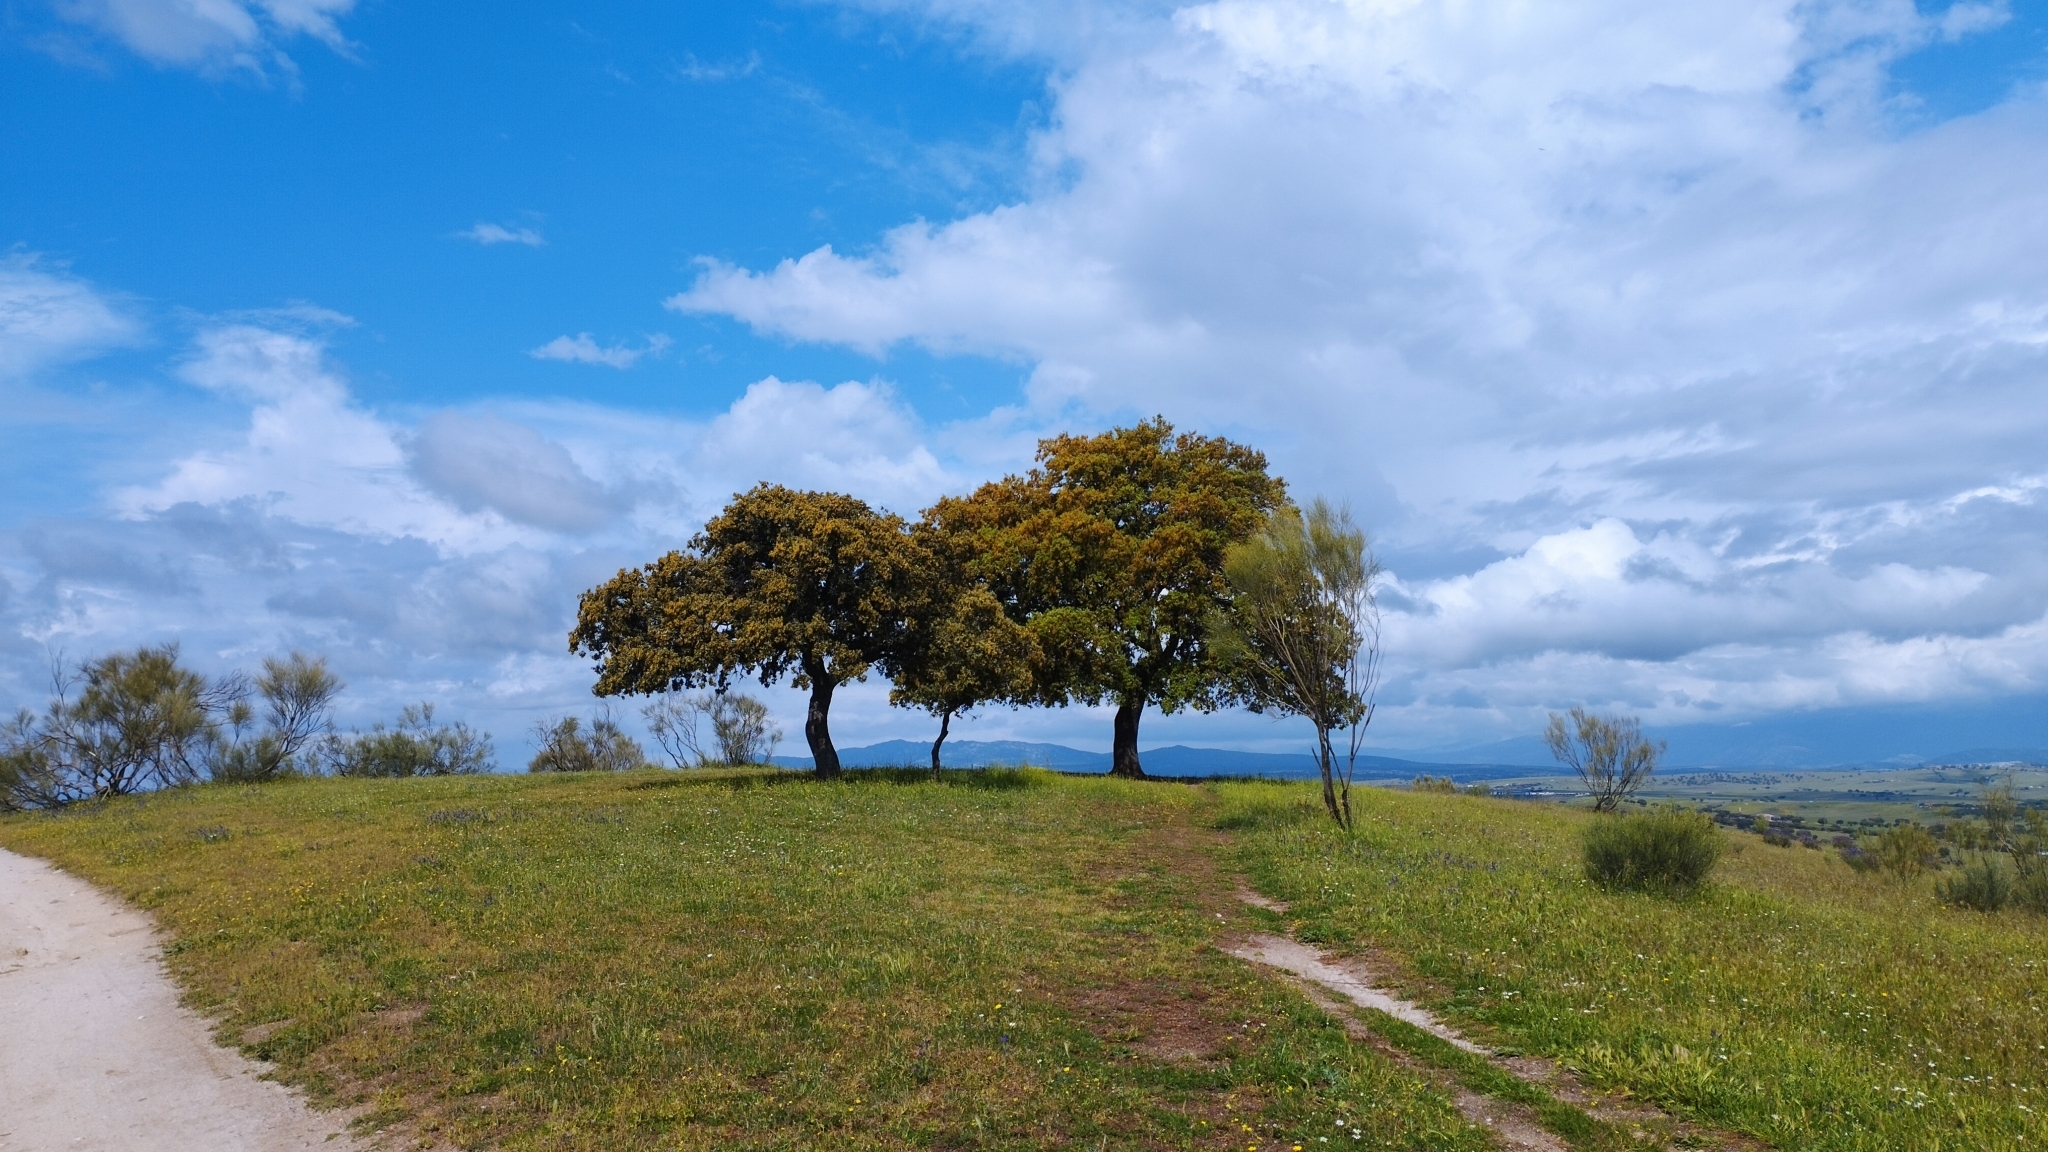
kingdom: Plantae
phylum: Tracheophyta
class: Magnoliopsida
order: Fagales
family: Fagaceae
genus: Quercus
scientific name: Quercus rotundifolia
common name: Holm oak
